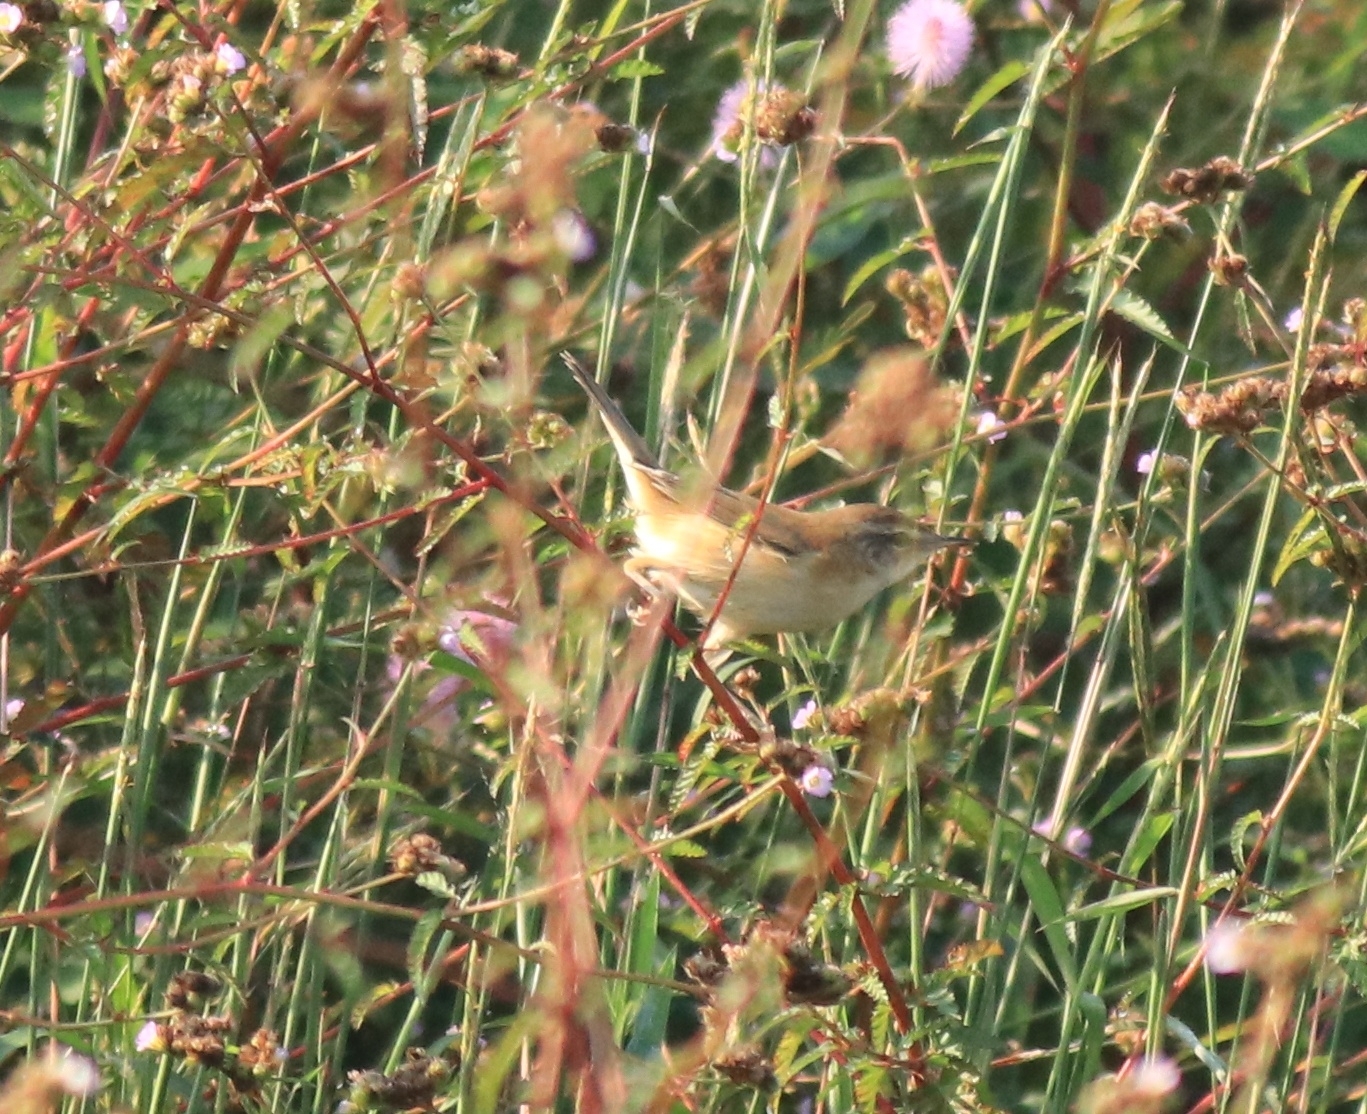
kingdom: Animalia
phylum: Chordata
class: Aves
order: Passeriformes
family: Acrocephalidae
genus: Acrocephalus
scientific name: Acrocephalus agricola
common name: Paddyfield warbler
